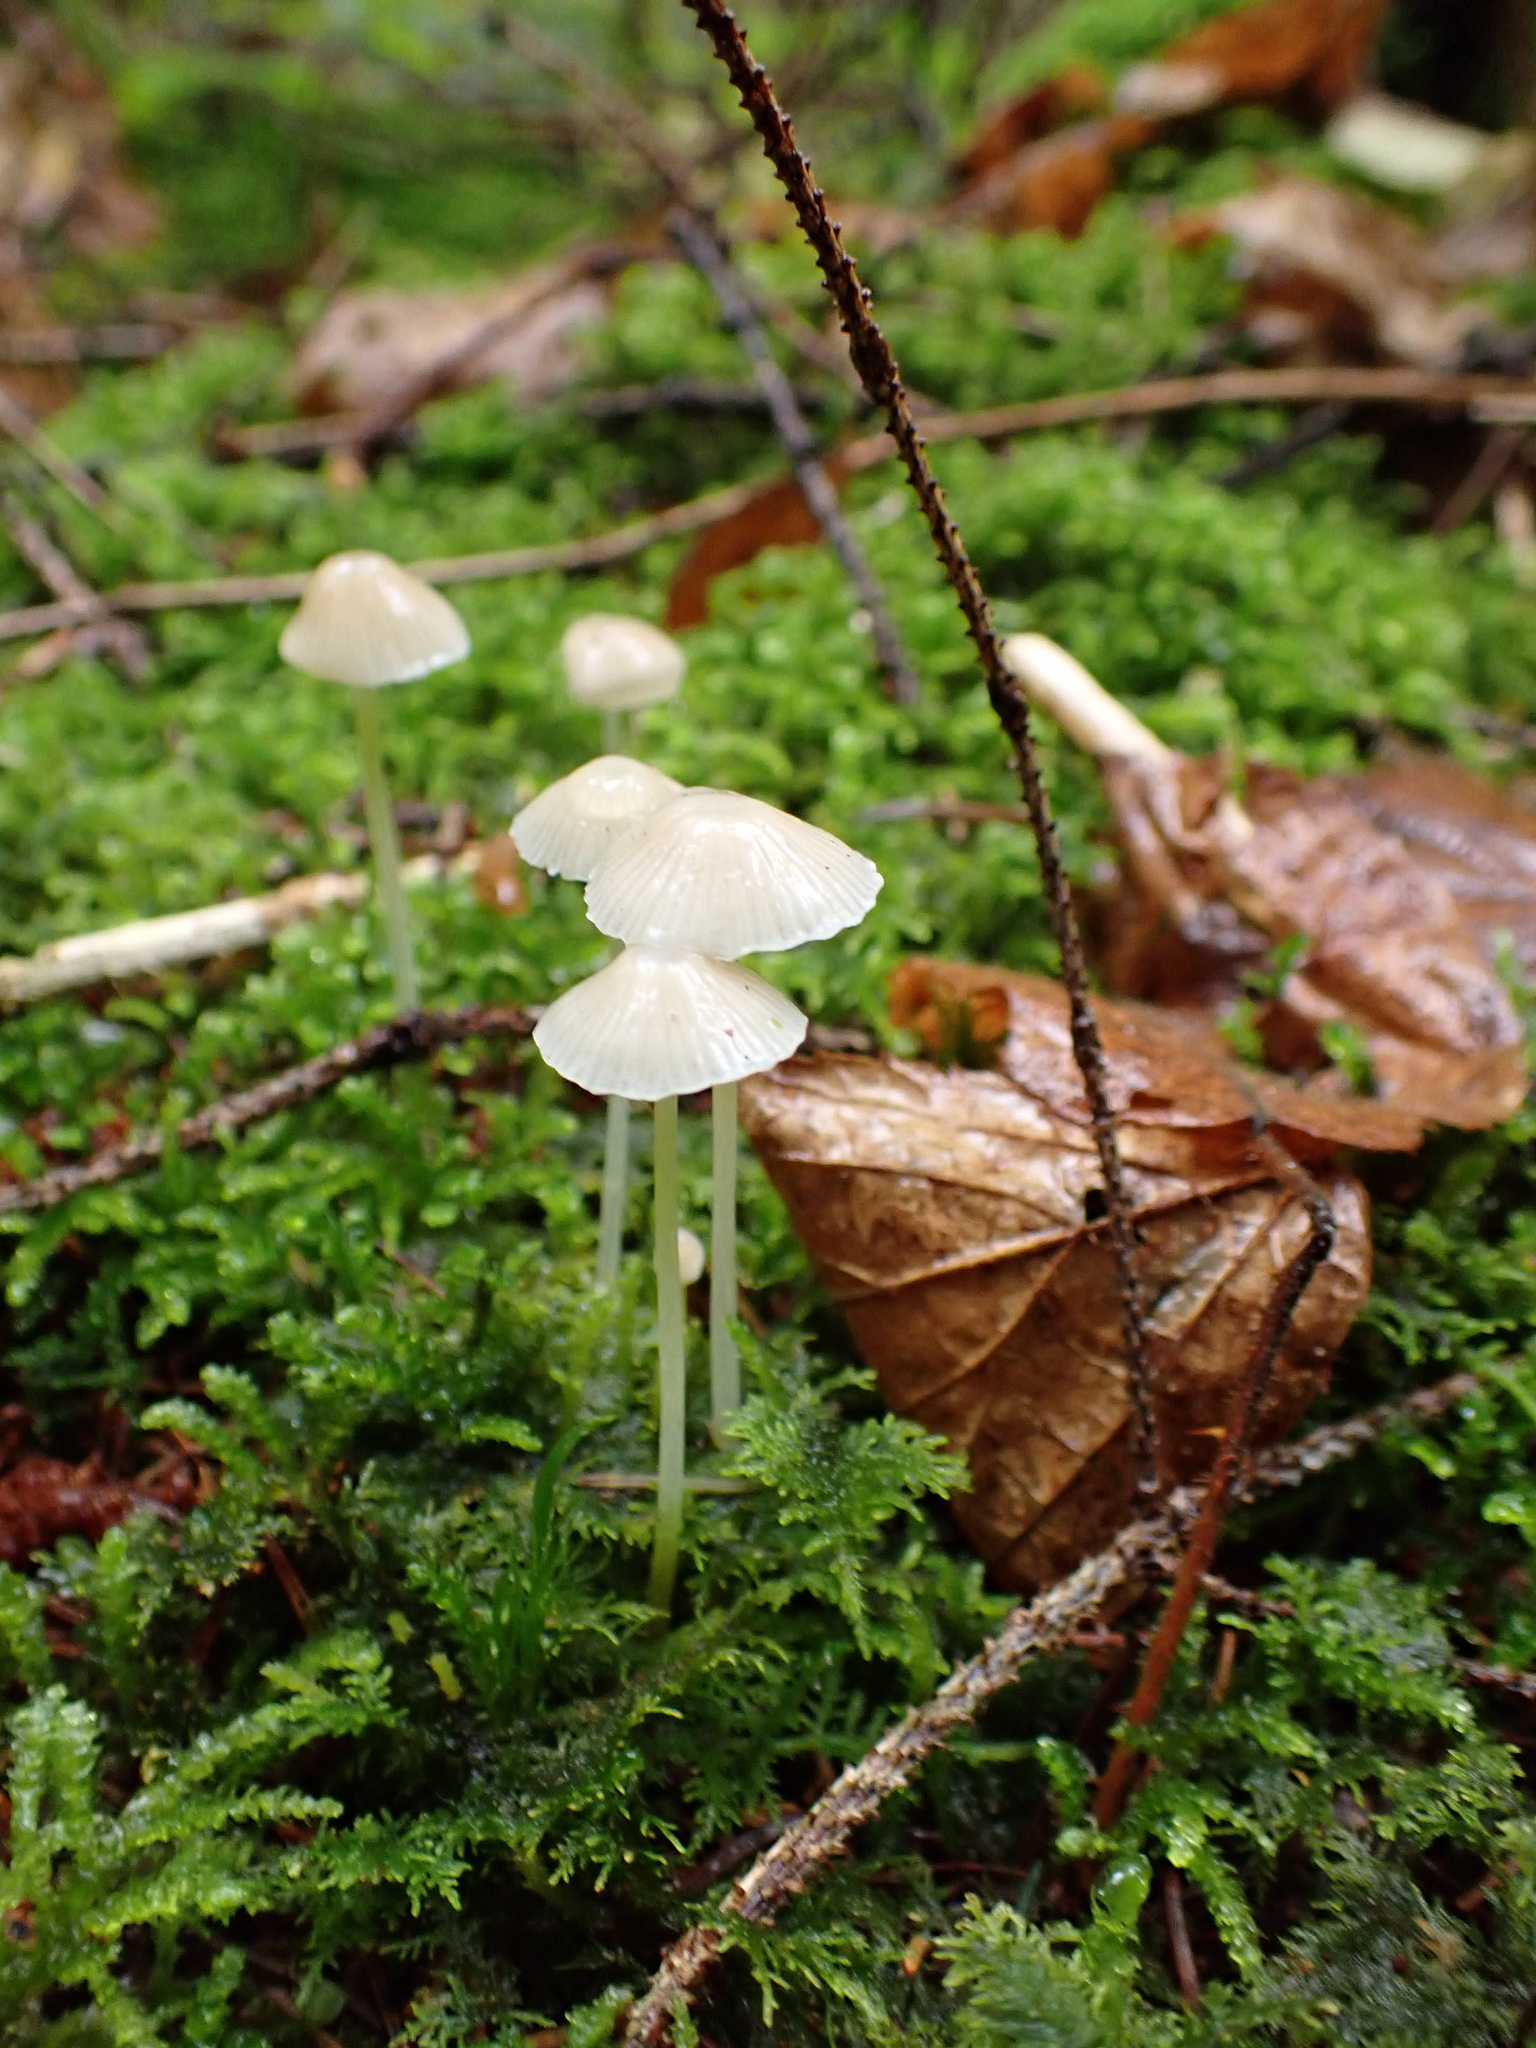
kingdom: Fungi
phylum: Basidiomycota
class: Agaricomycetes
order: Agaricales
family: Mycenaceae
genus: Mycena
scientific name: Mycena epipterygia
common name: Yellowleg bonnet
